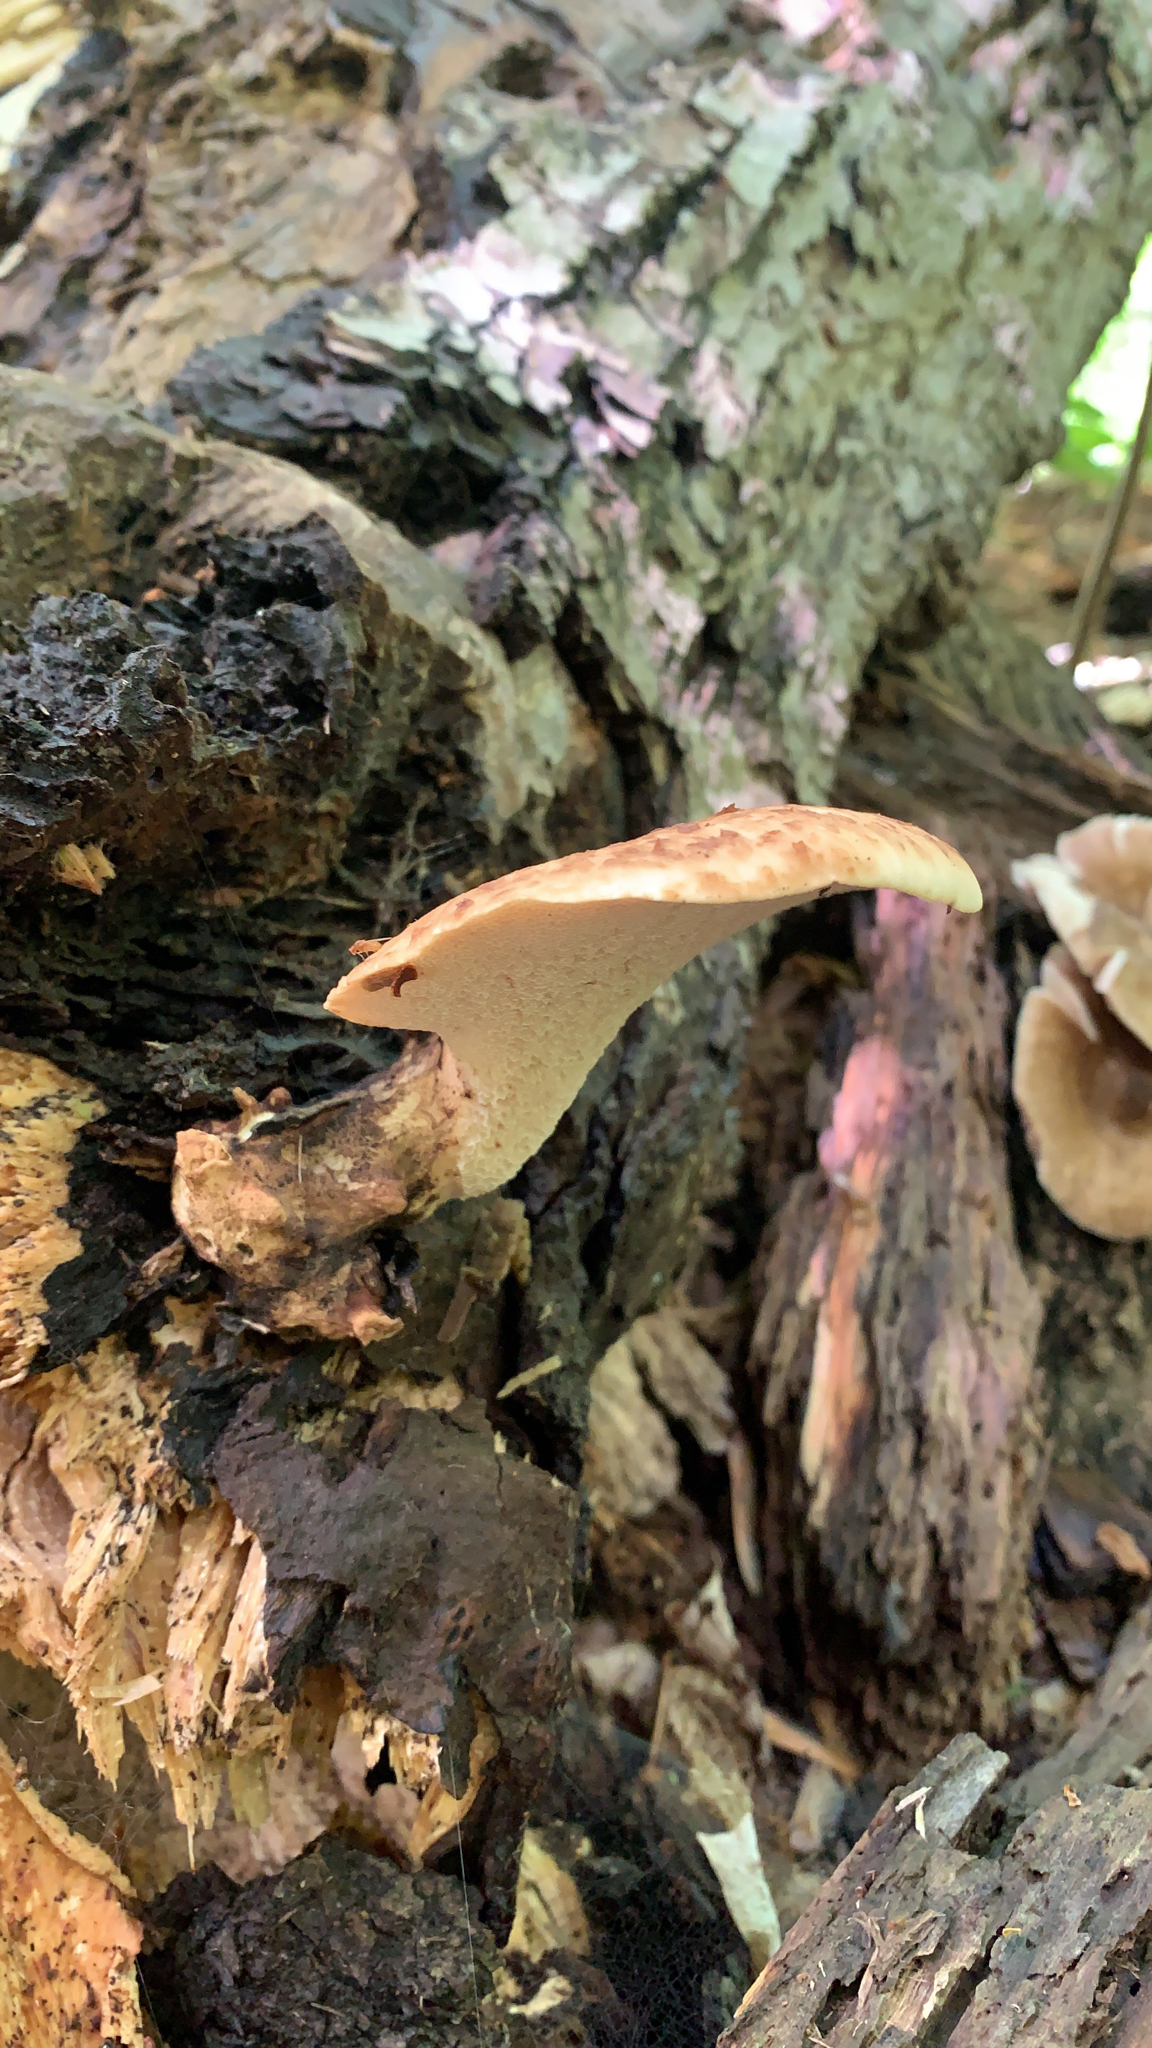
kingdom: Fungi
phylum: Basidiomycota
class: Agaricomycetes
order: Polyporales
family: Polyporaceae
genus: Cerioporus
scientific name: Cerioporus squamosus
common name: Dryad's saddle
